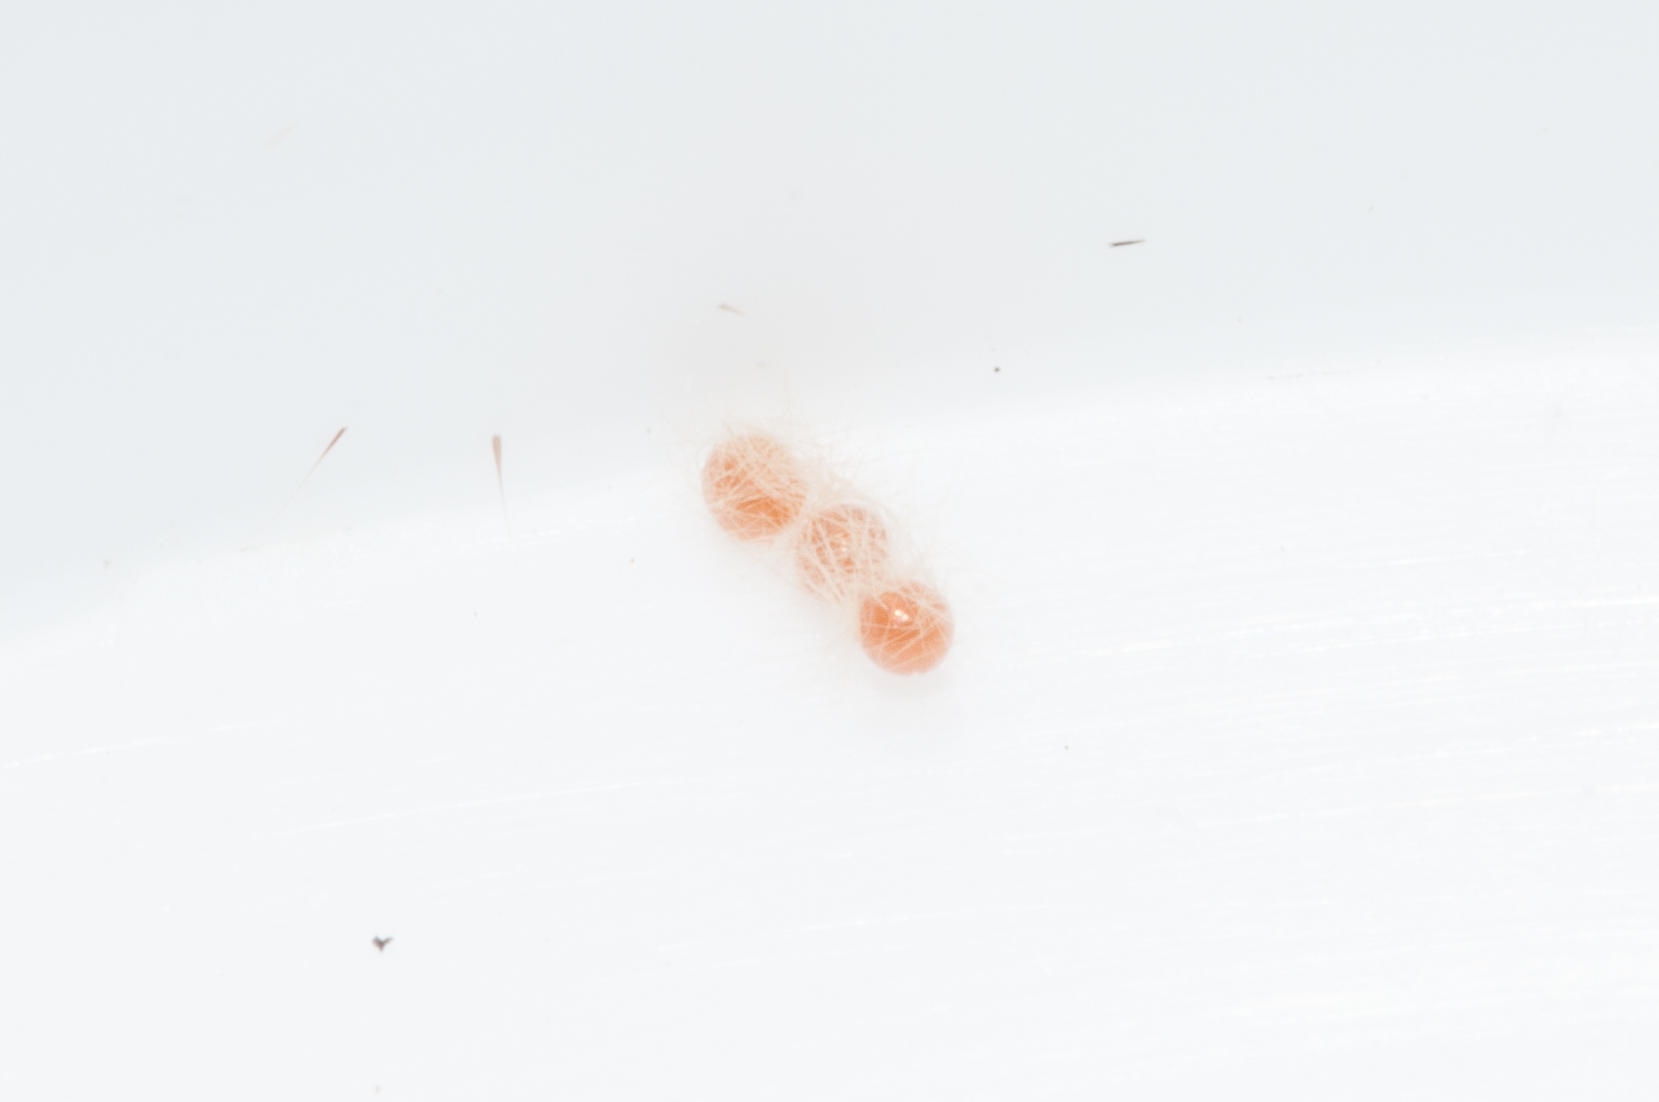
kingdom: Animalia
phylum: Arthropoda
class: Insecta
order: Lepidoptera
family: Erebidae
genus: Siccia
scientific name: Siccia caffra
